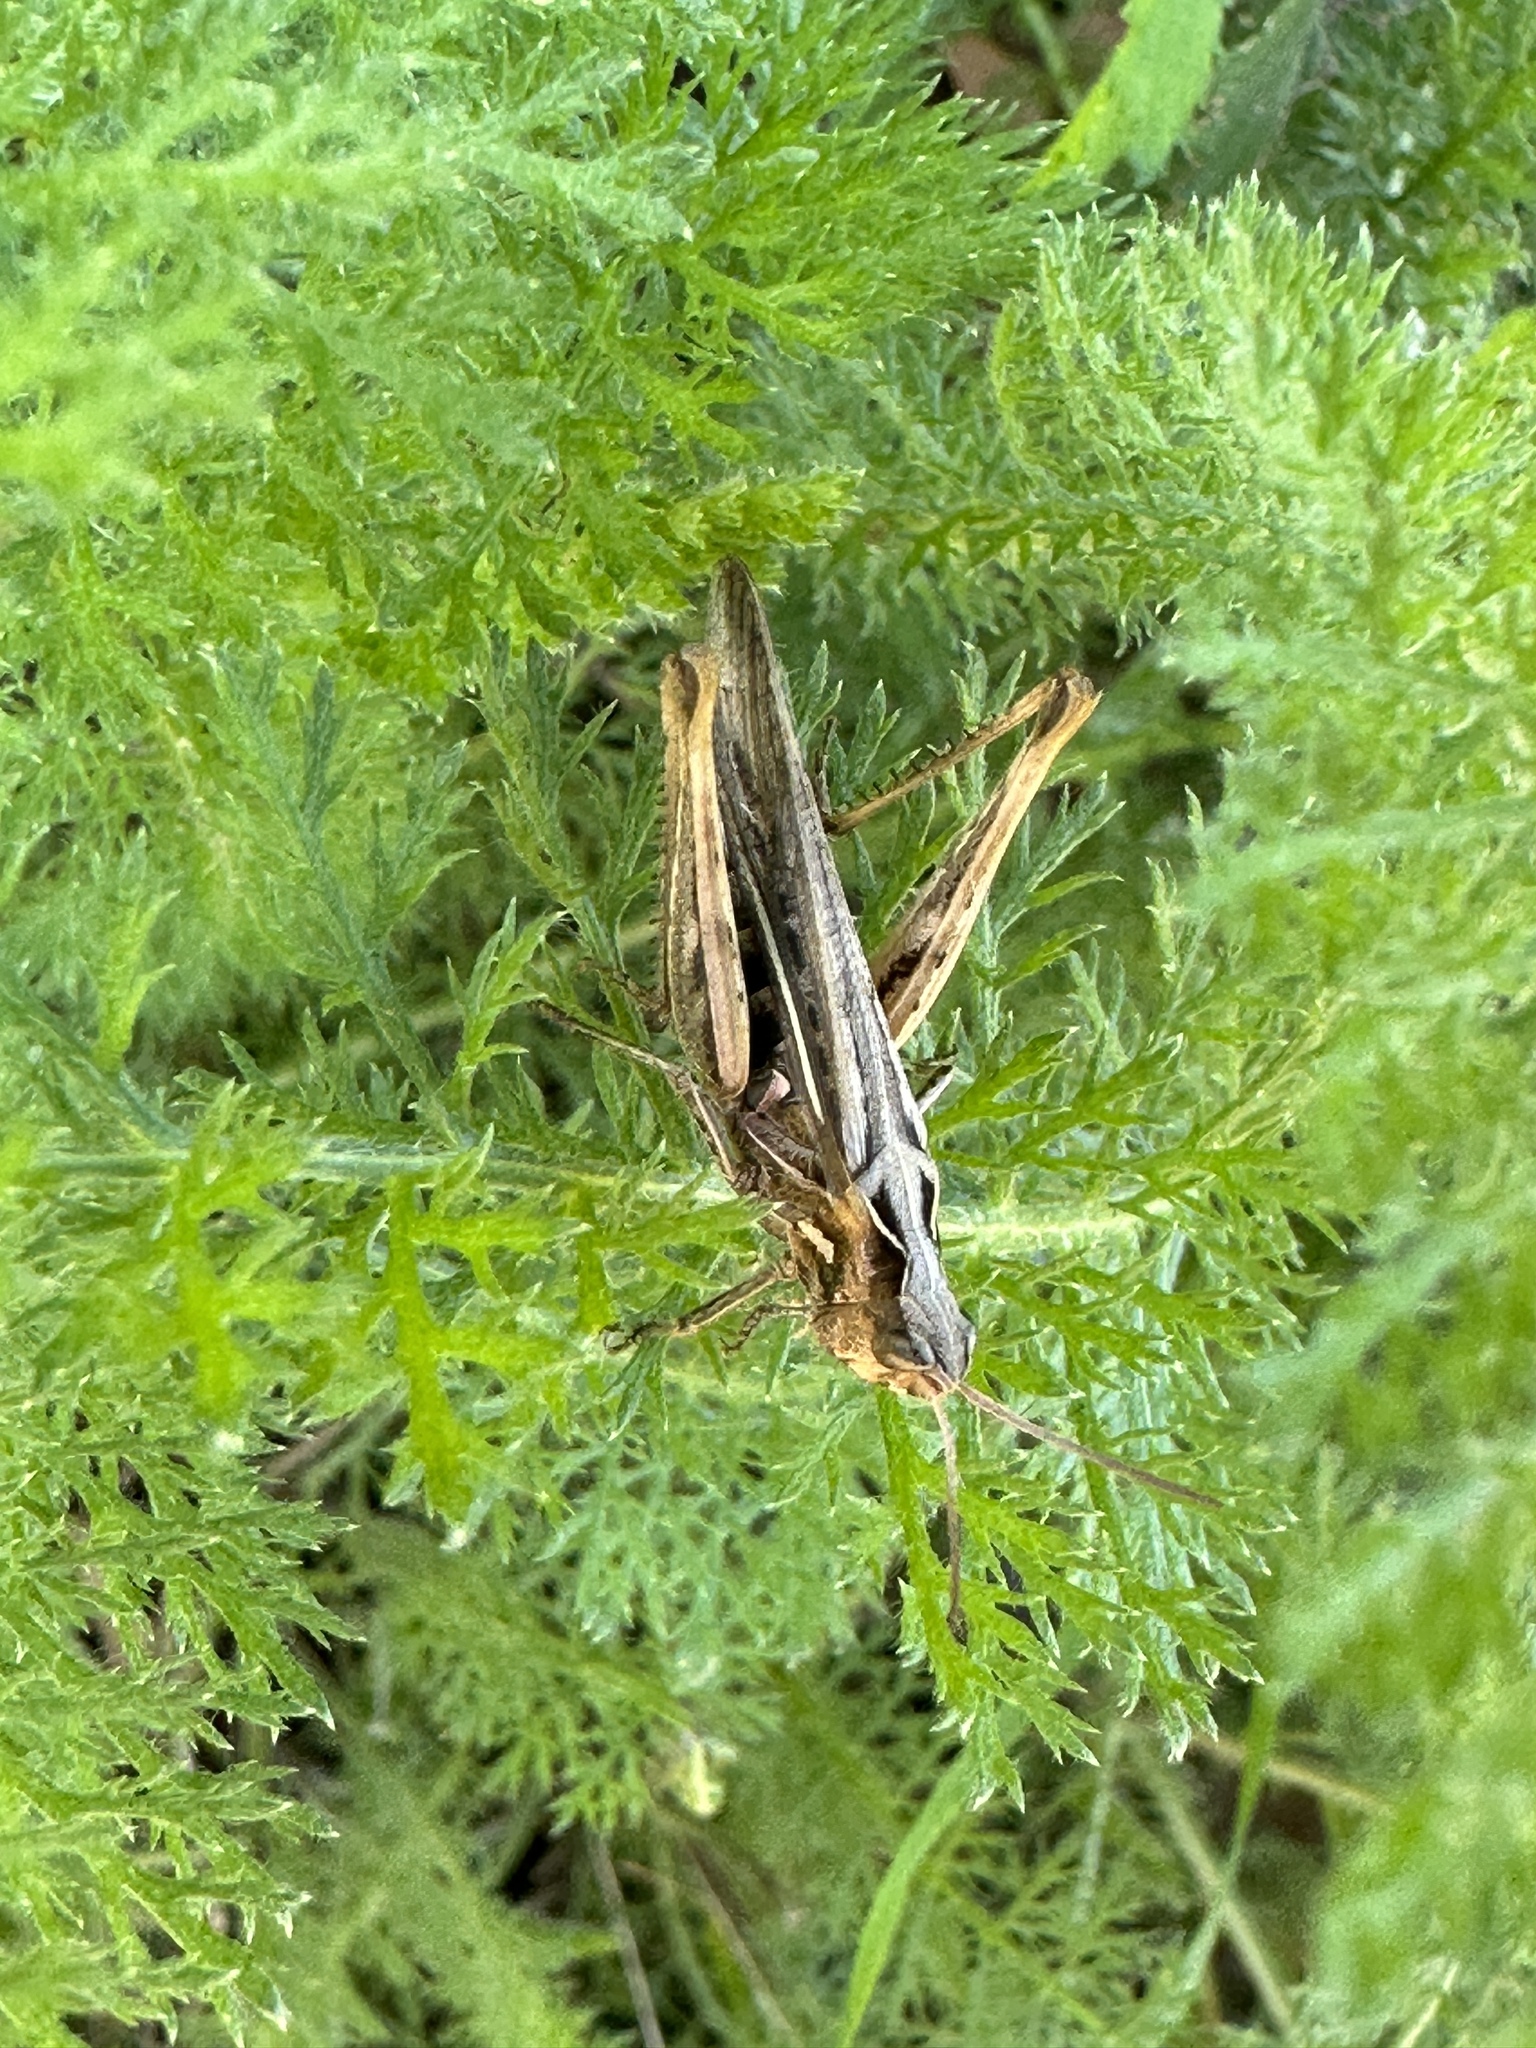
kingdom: Animalia
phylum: Arthropoda
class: Insecta
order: Orthoptera
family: Acrididae
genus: Chorthippus
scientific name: Chorthippus brunneus
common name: Field grasshopper
